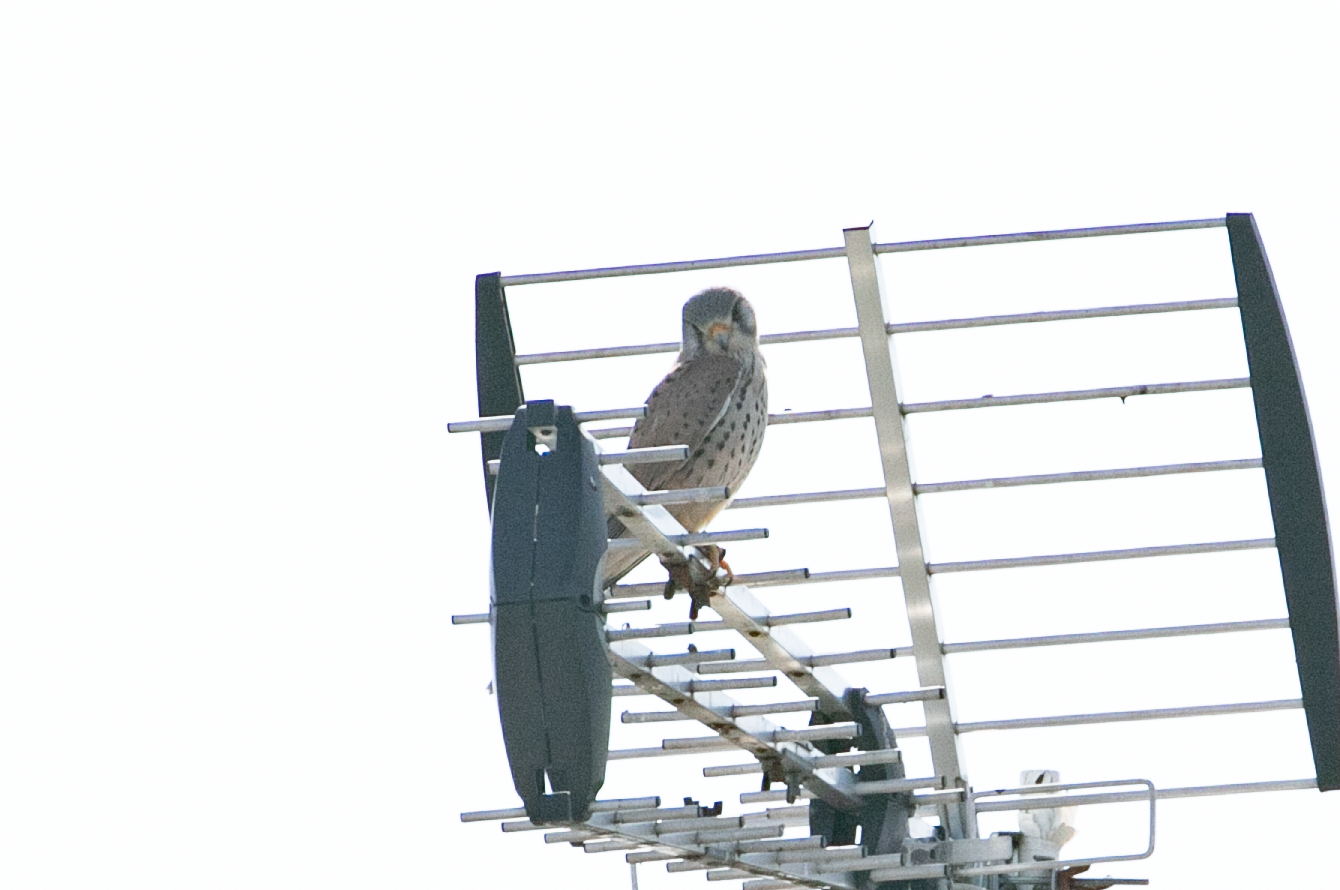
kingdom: Animalia
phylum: Chordata
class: Aves
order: Falconiformes
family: Falconidae
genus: Falco
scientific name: Falco tinnunculus
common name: Common kestrel
